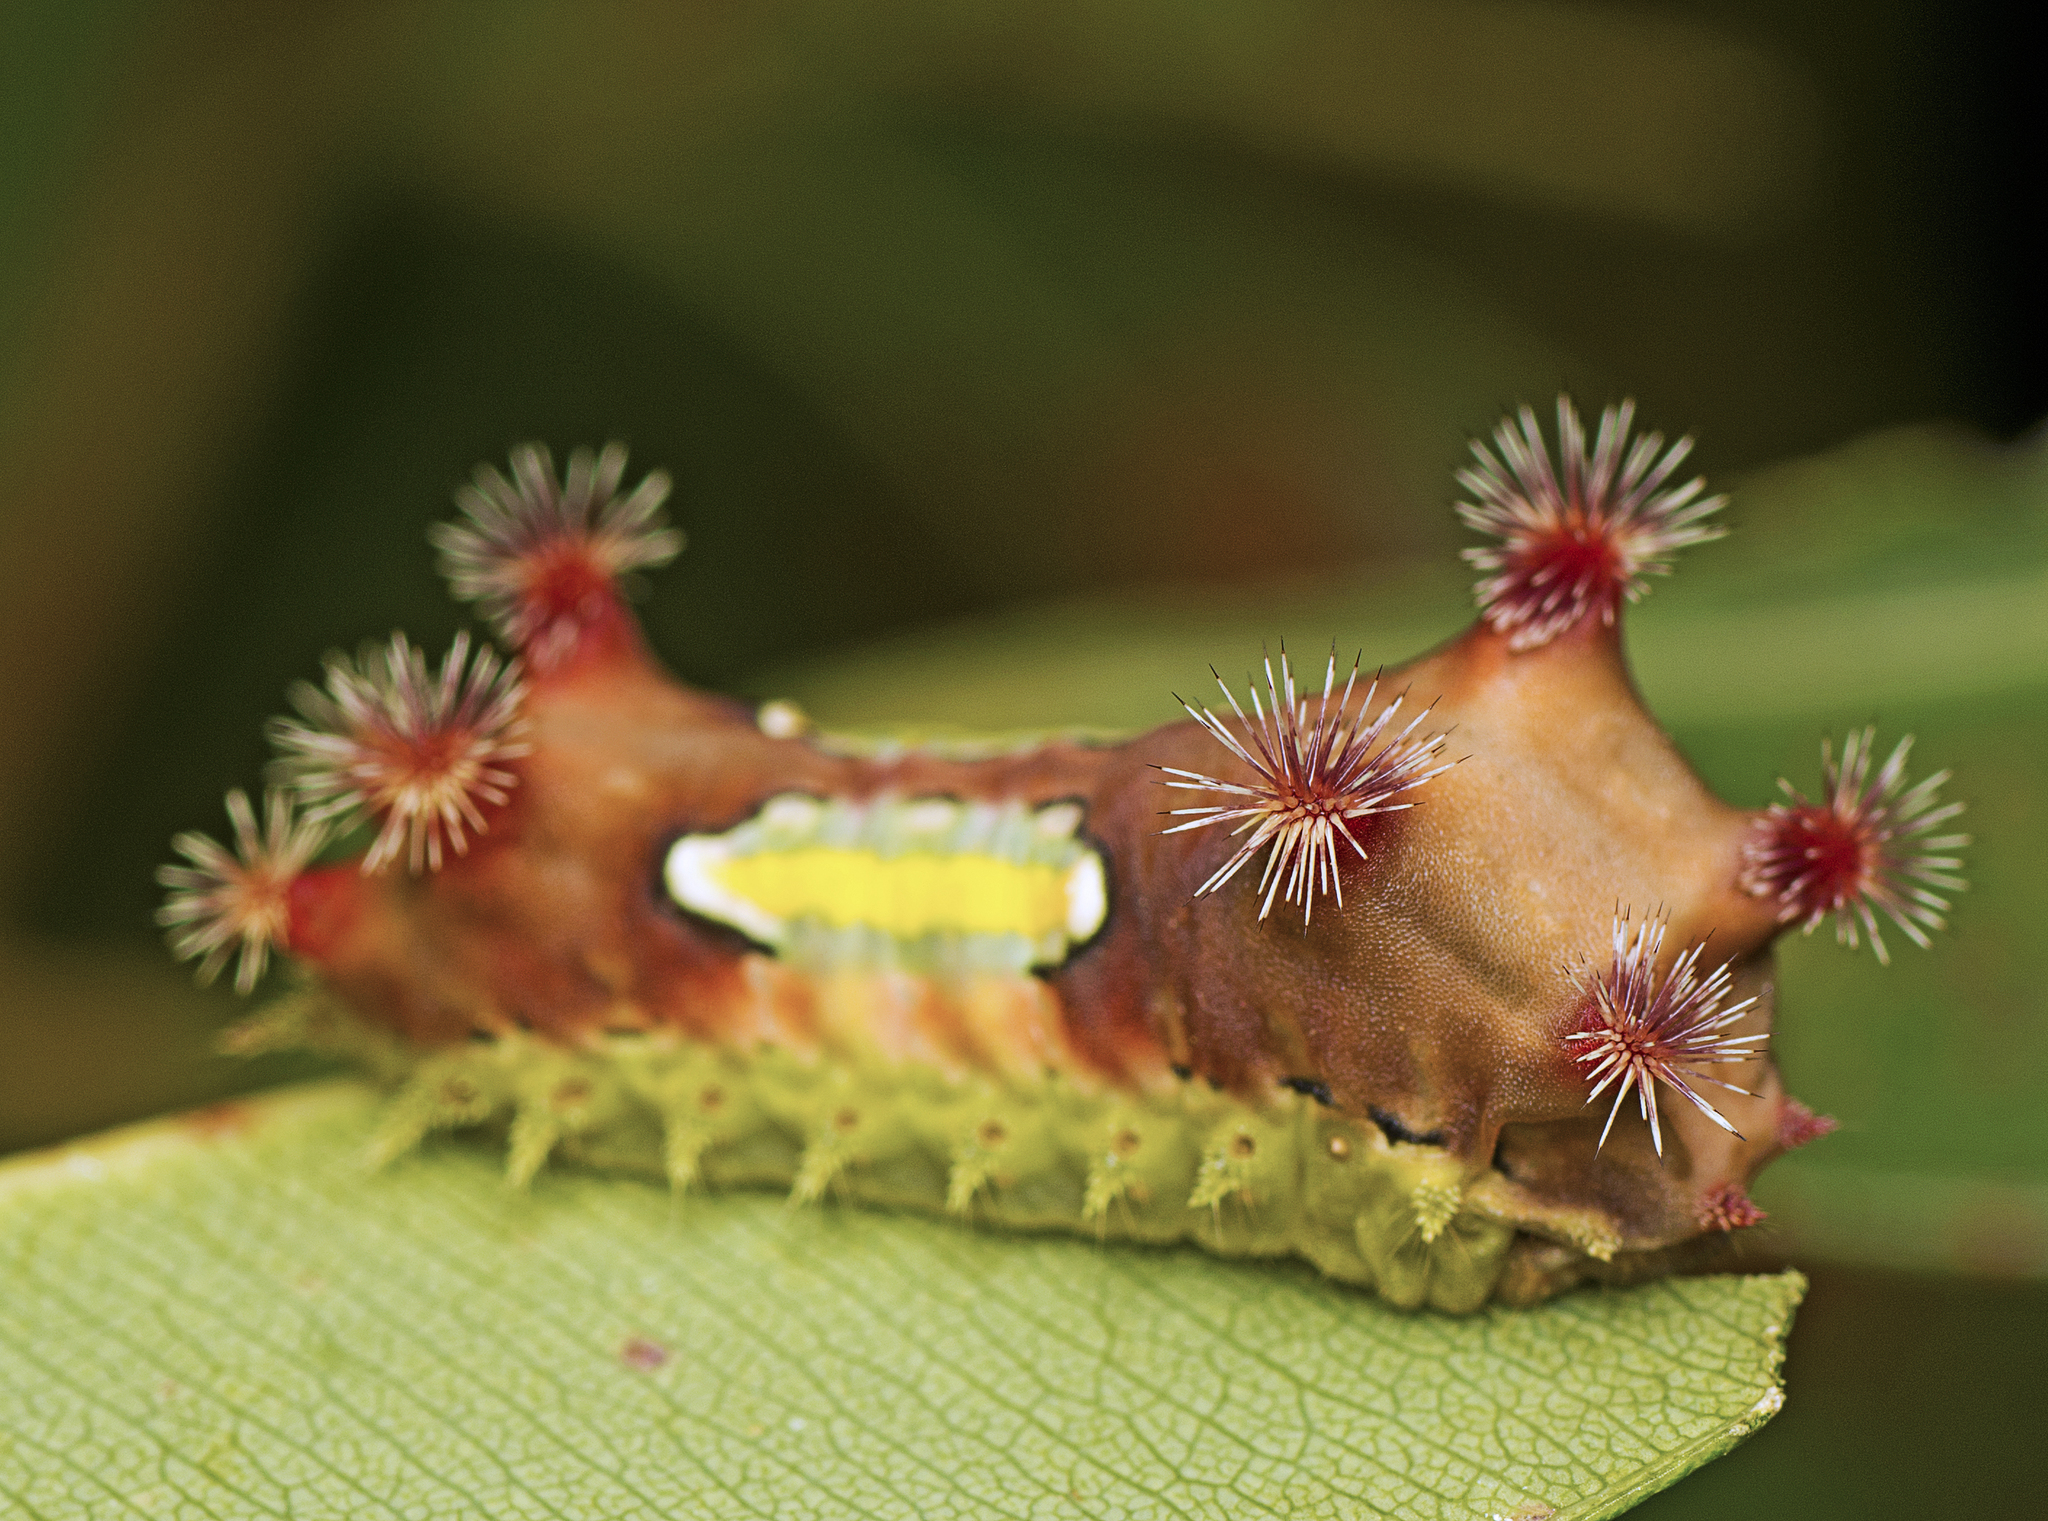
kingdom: Animalia
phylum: Arthropoda
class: Insecta
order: Lepidoptera
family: Limacodidae
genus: Doratifera
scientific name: Doratifera vulnerans
